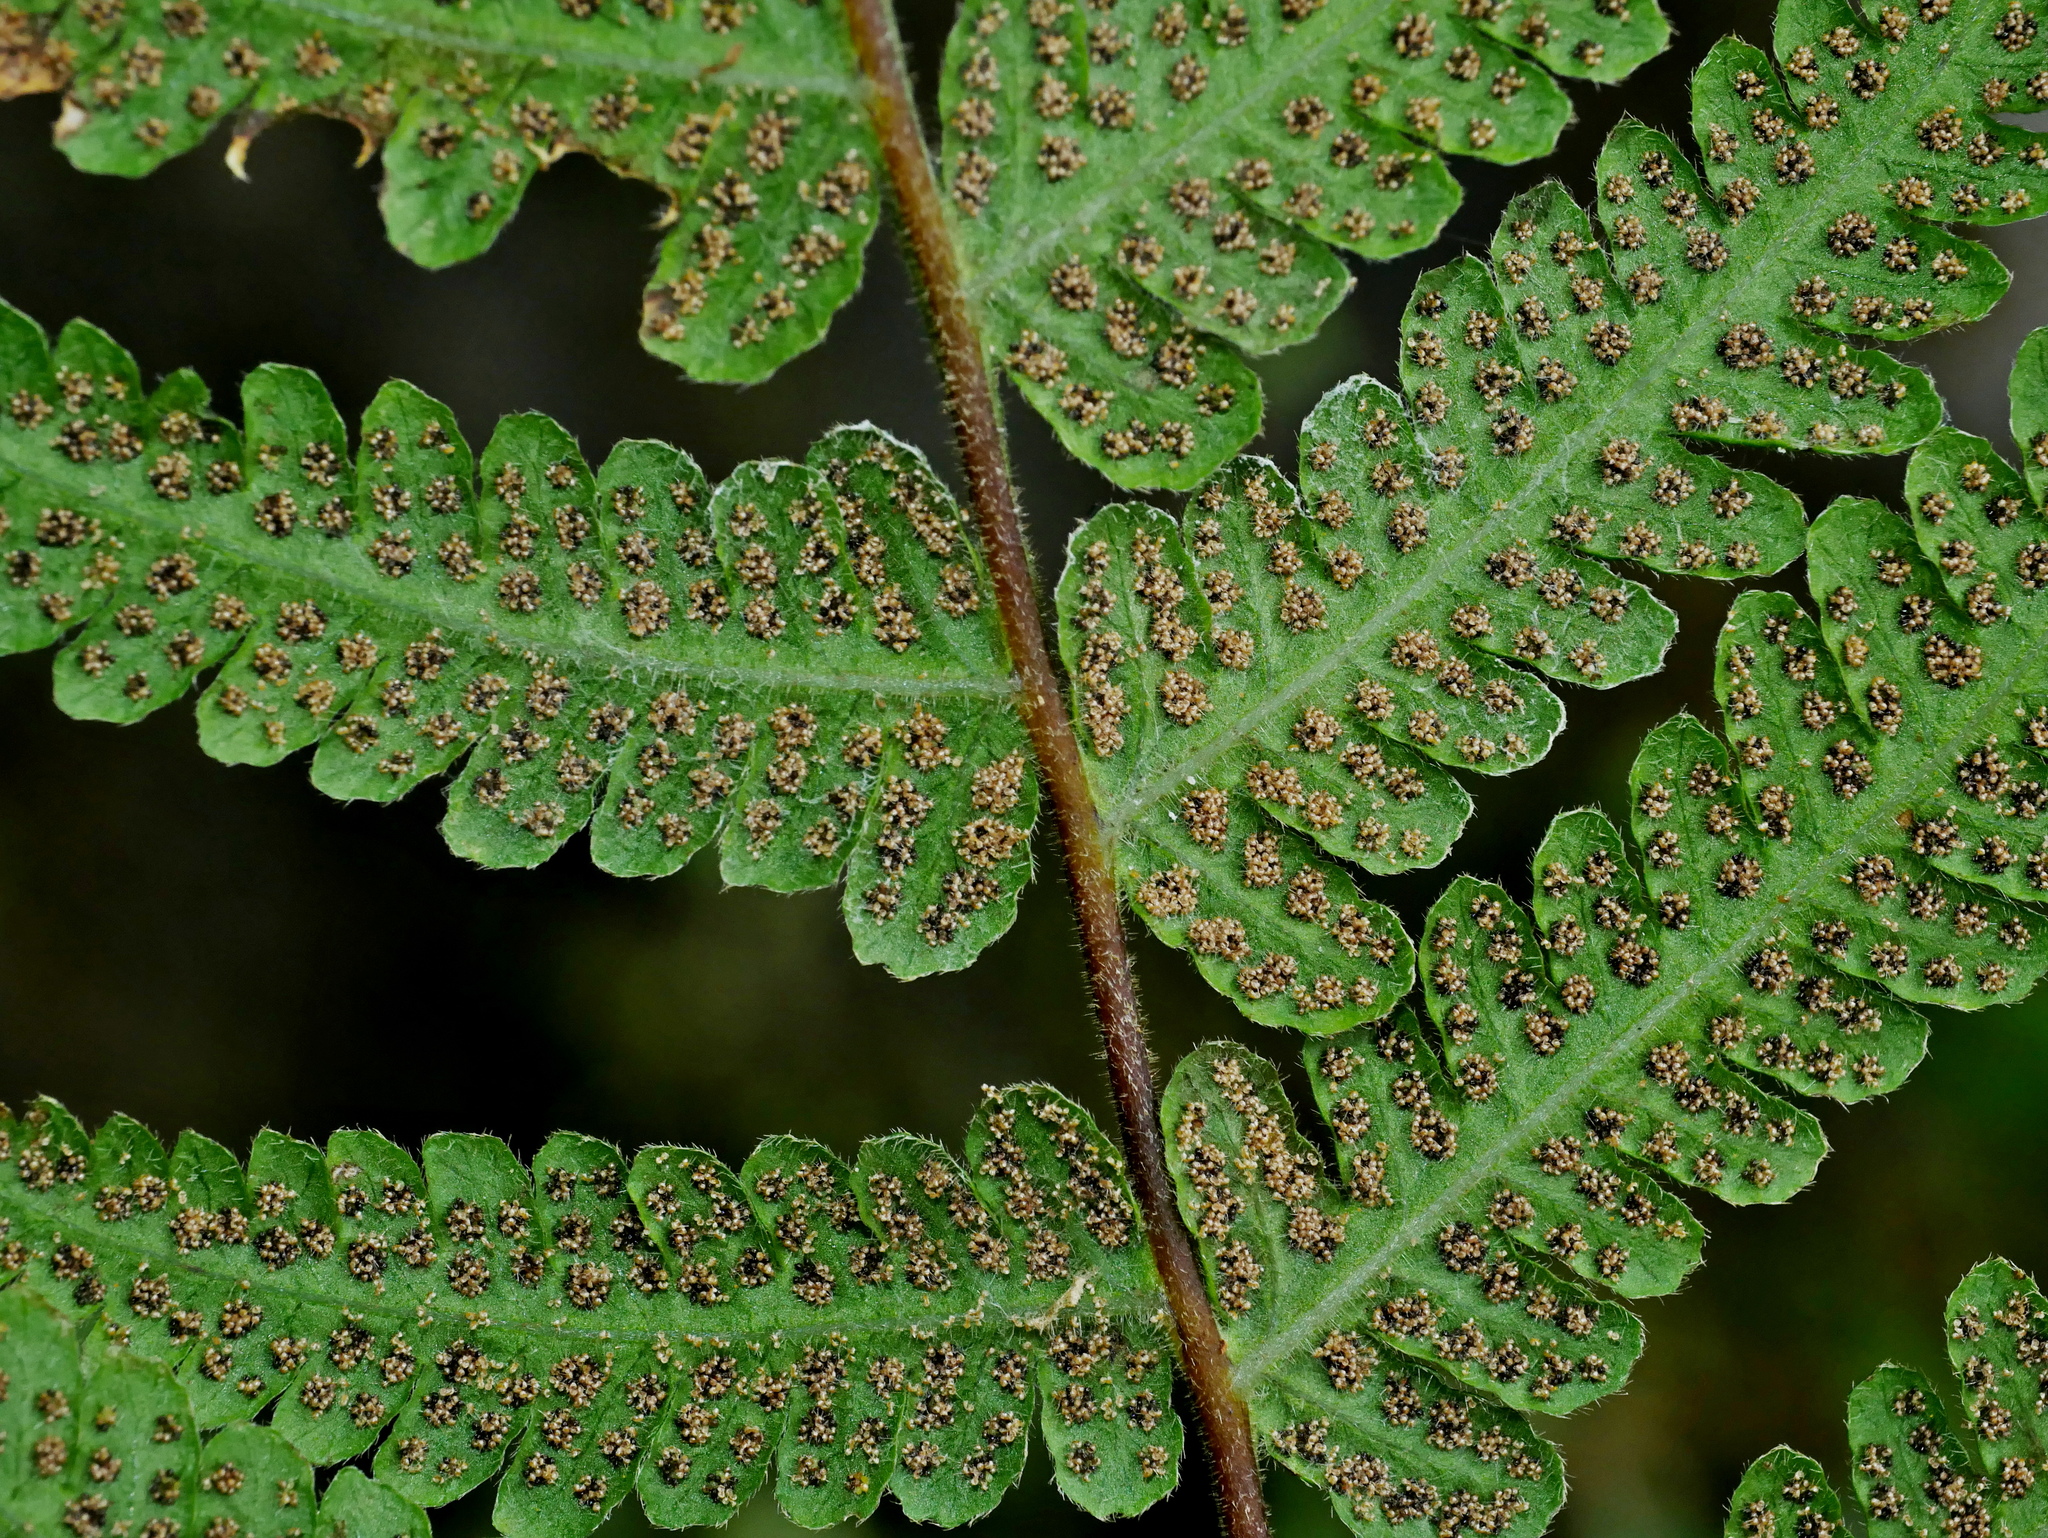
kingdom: Plantae
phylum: Tracheophyta
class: Polypodiopsida
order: Polypodiales
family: Thelypteridaceae
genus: Pseudophegopteris
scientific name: Pseudophegopteris hirtirachis
